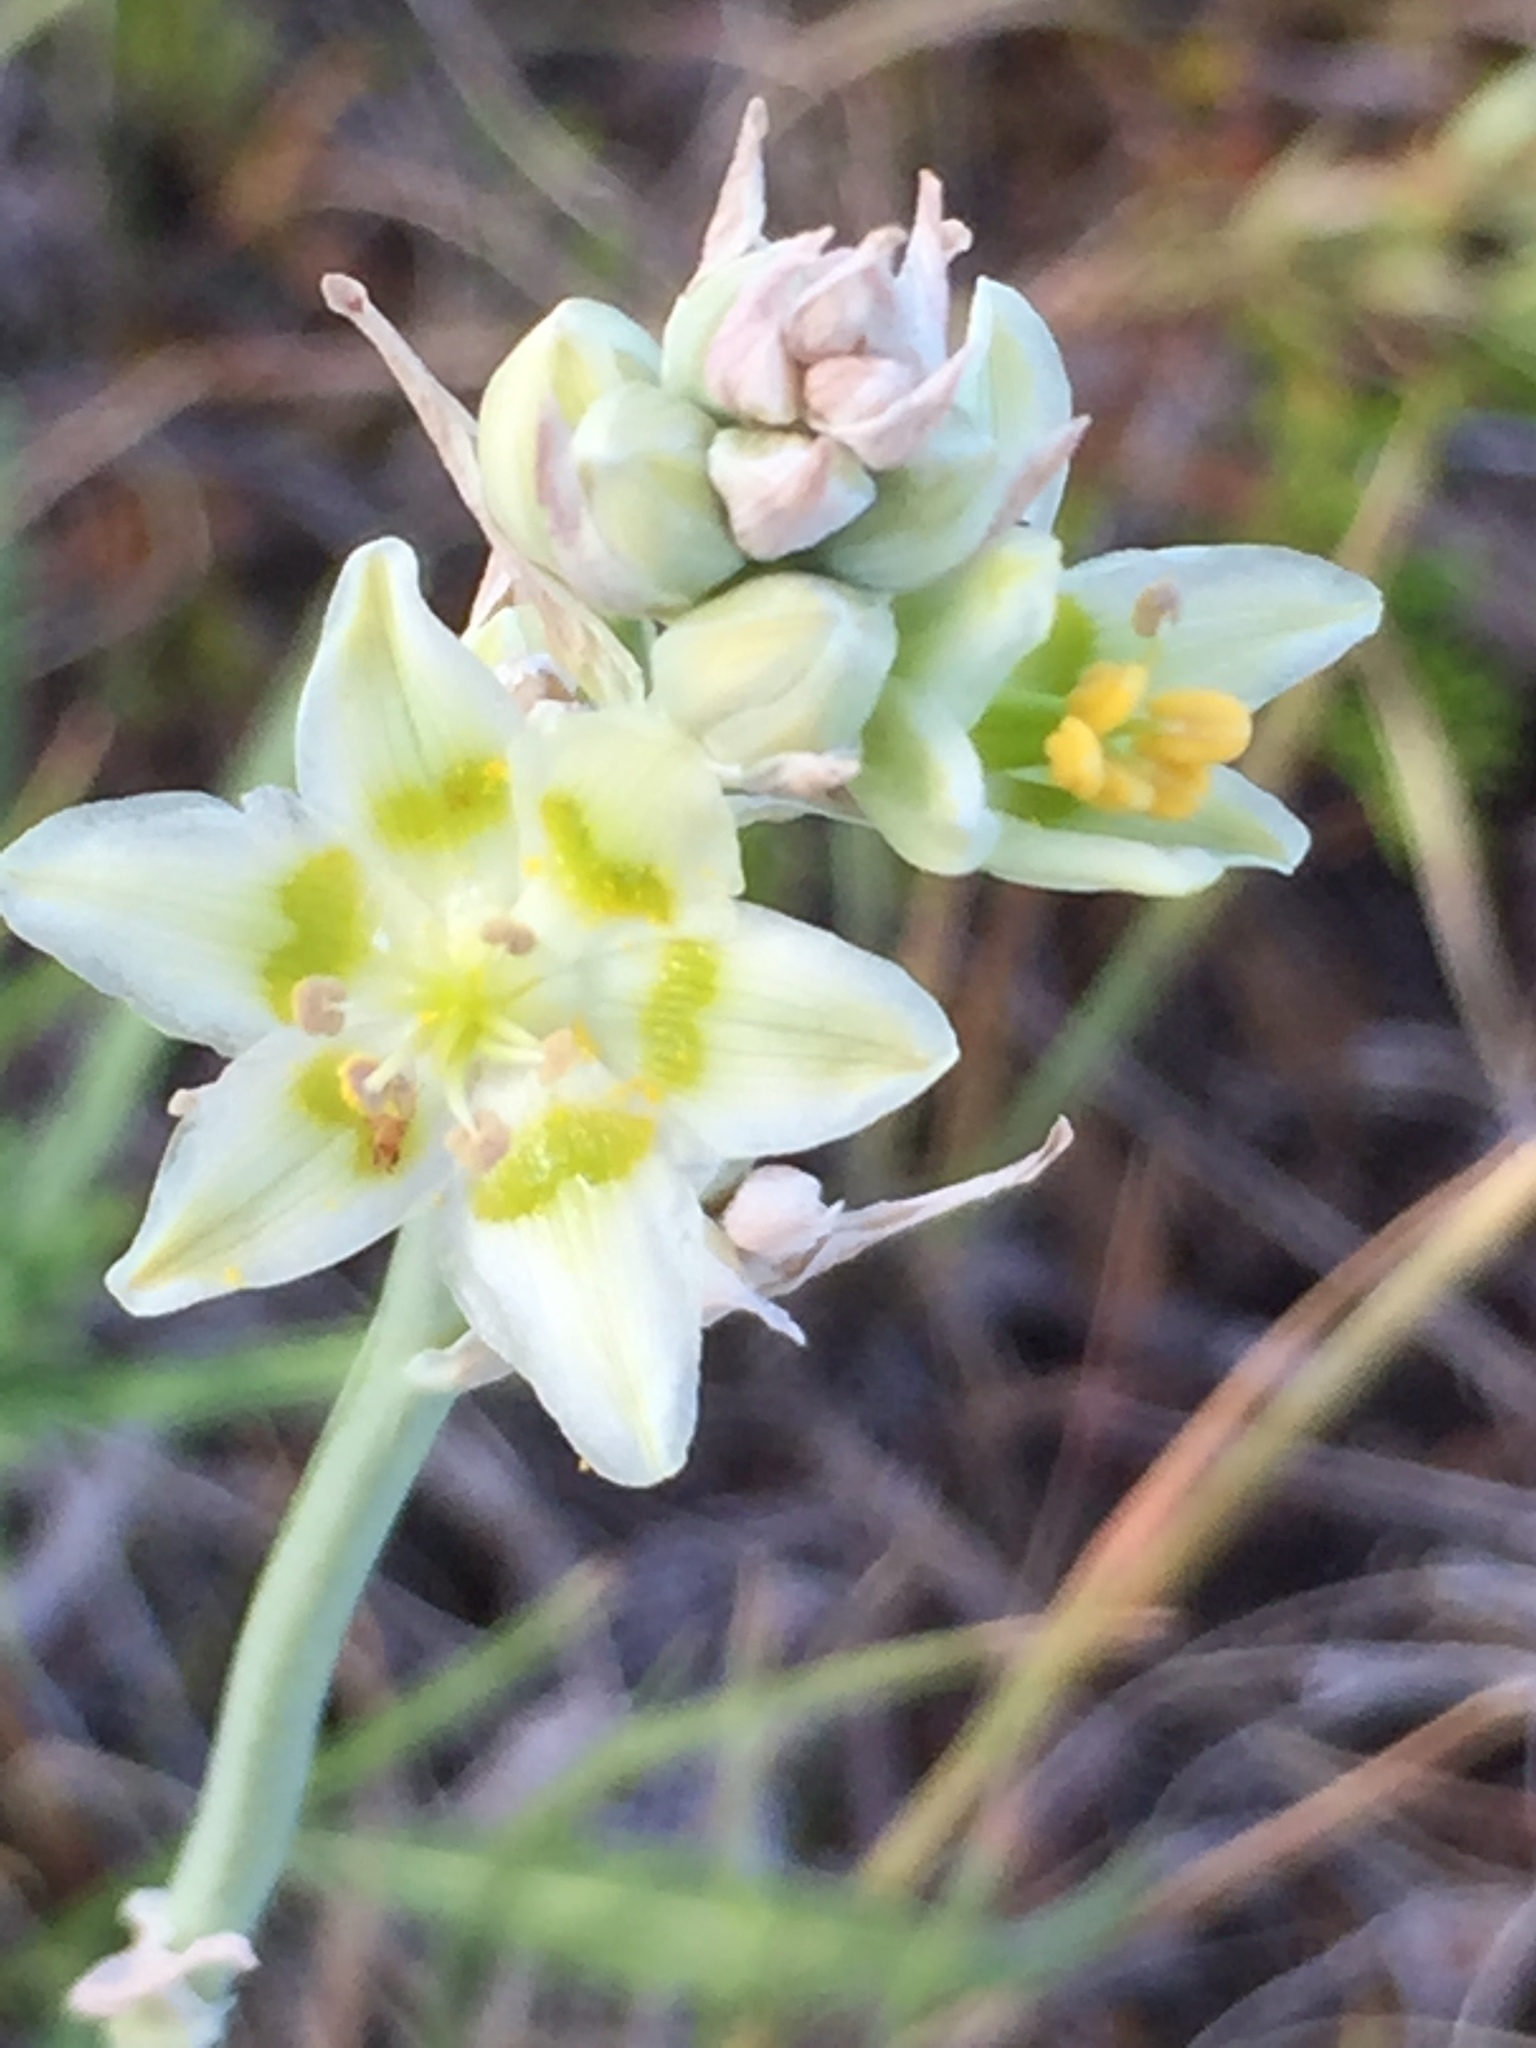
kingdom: Plantae
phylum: Tracheophyta
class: Liliopsida
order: Liliales
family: Melanthiaceae
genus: Anticlea
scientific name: Anticlea elegans
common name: Mountain death camas
